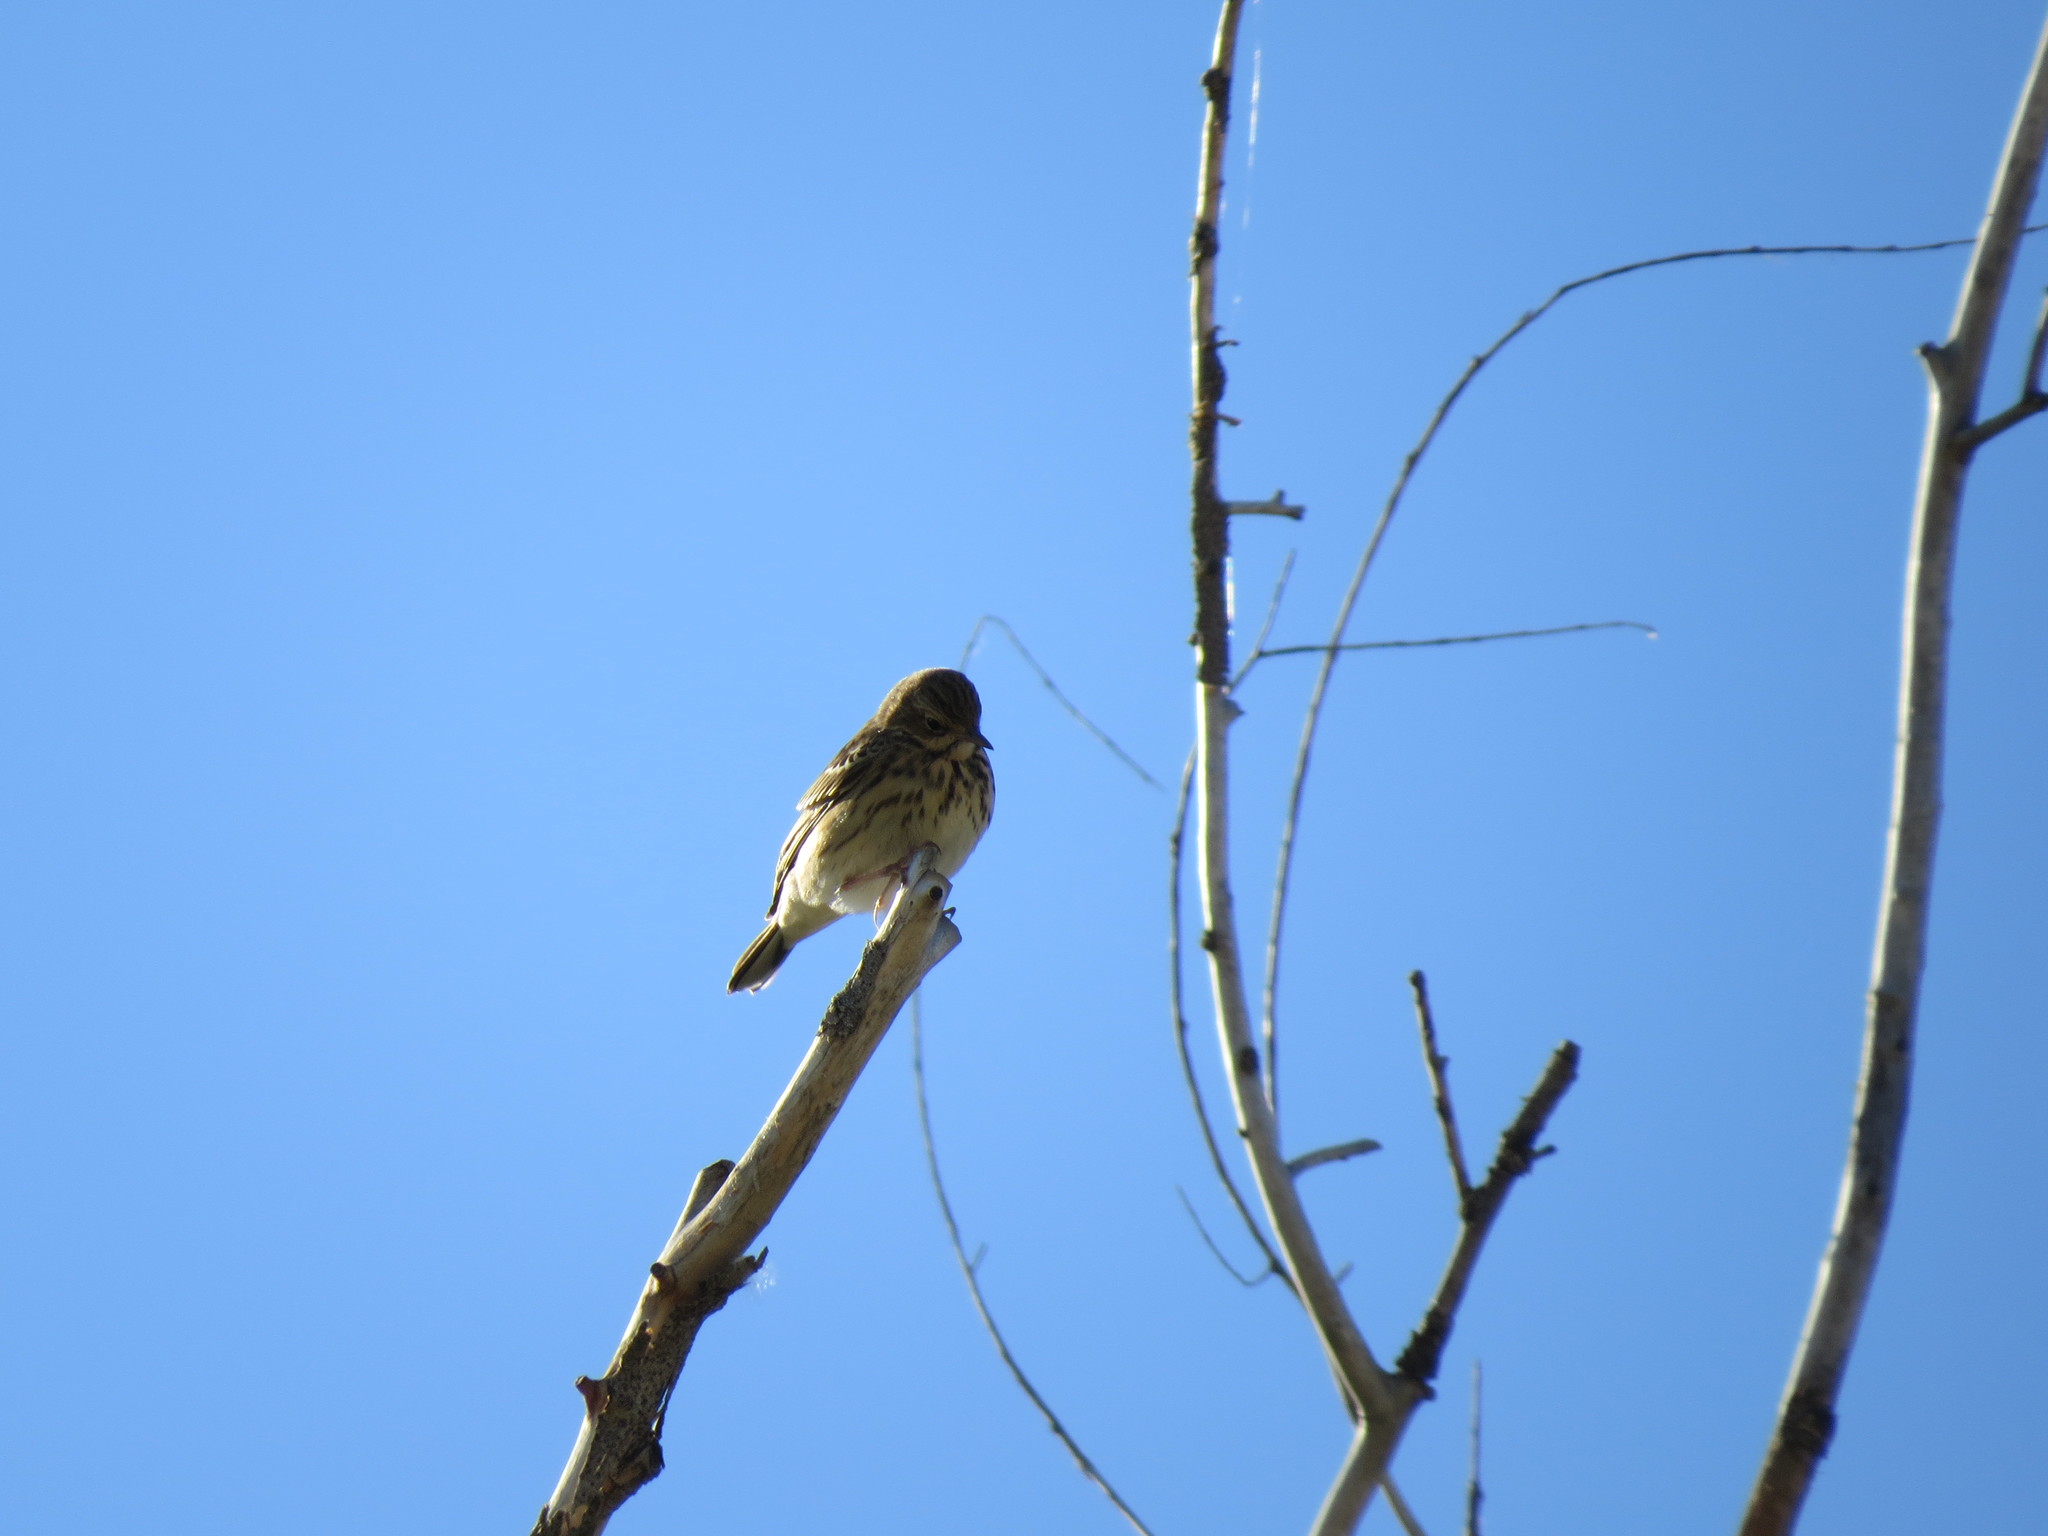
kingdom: Animalia
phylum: Chordata
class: Aves
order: Passeriformes
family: Motacillidae
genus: Anthus
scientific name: Anthus trivialis
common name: Tree pipit
